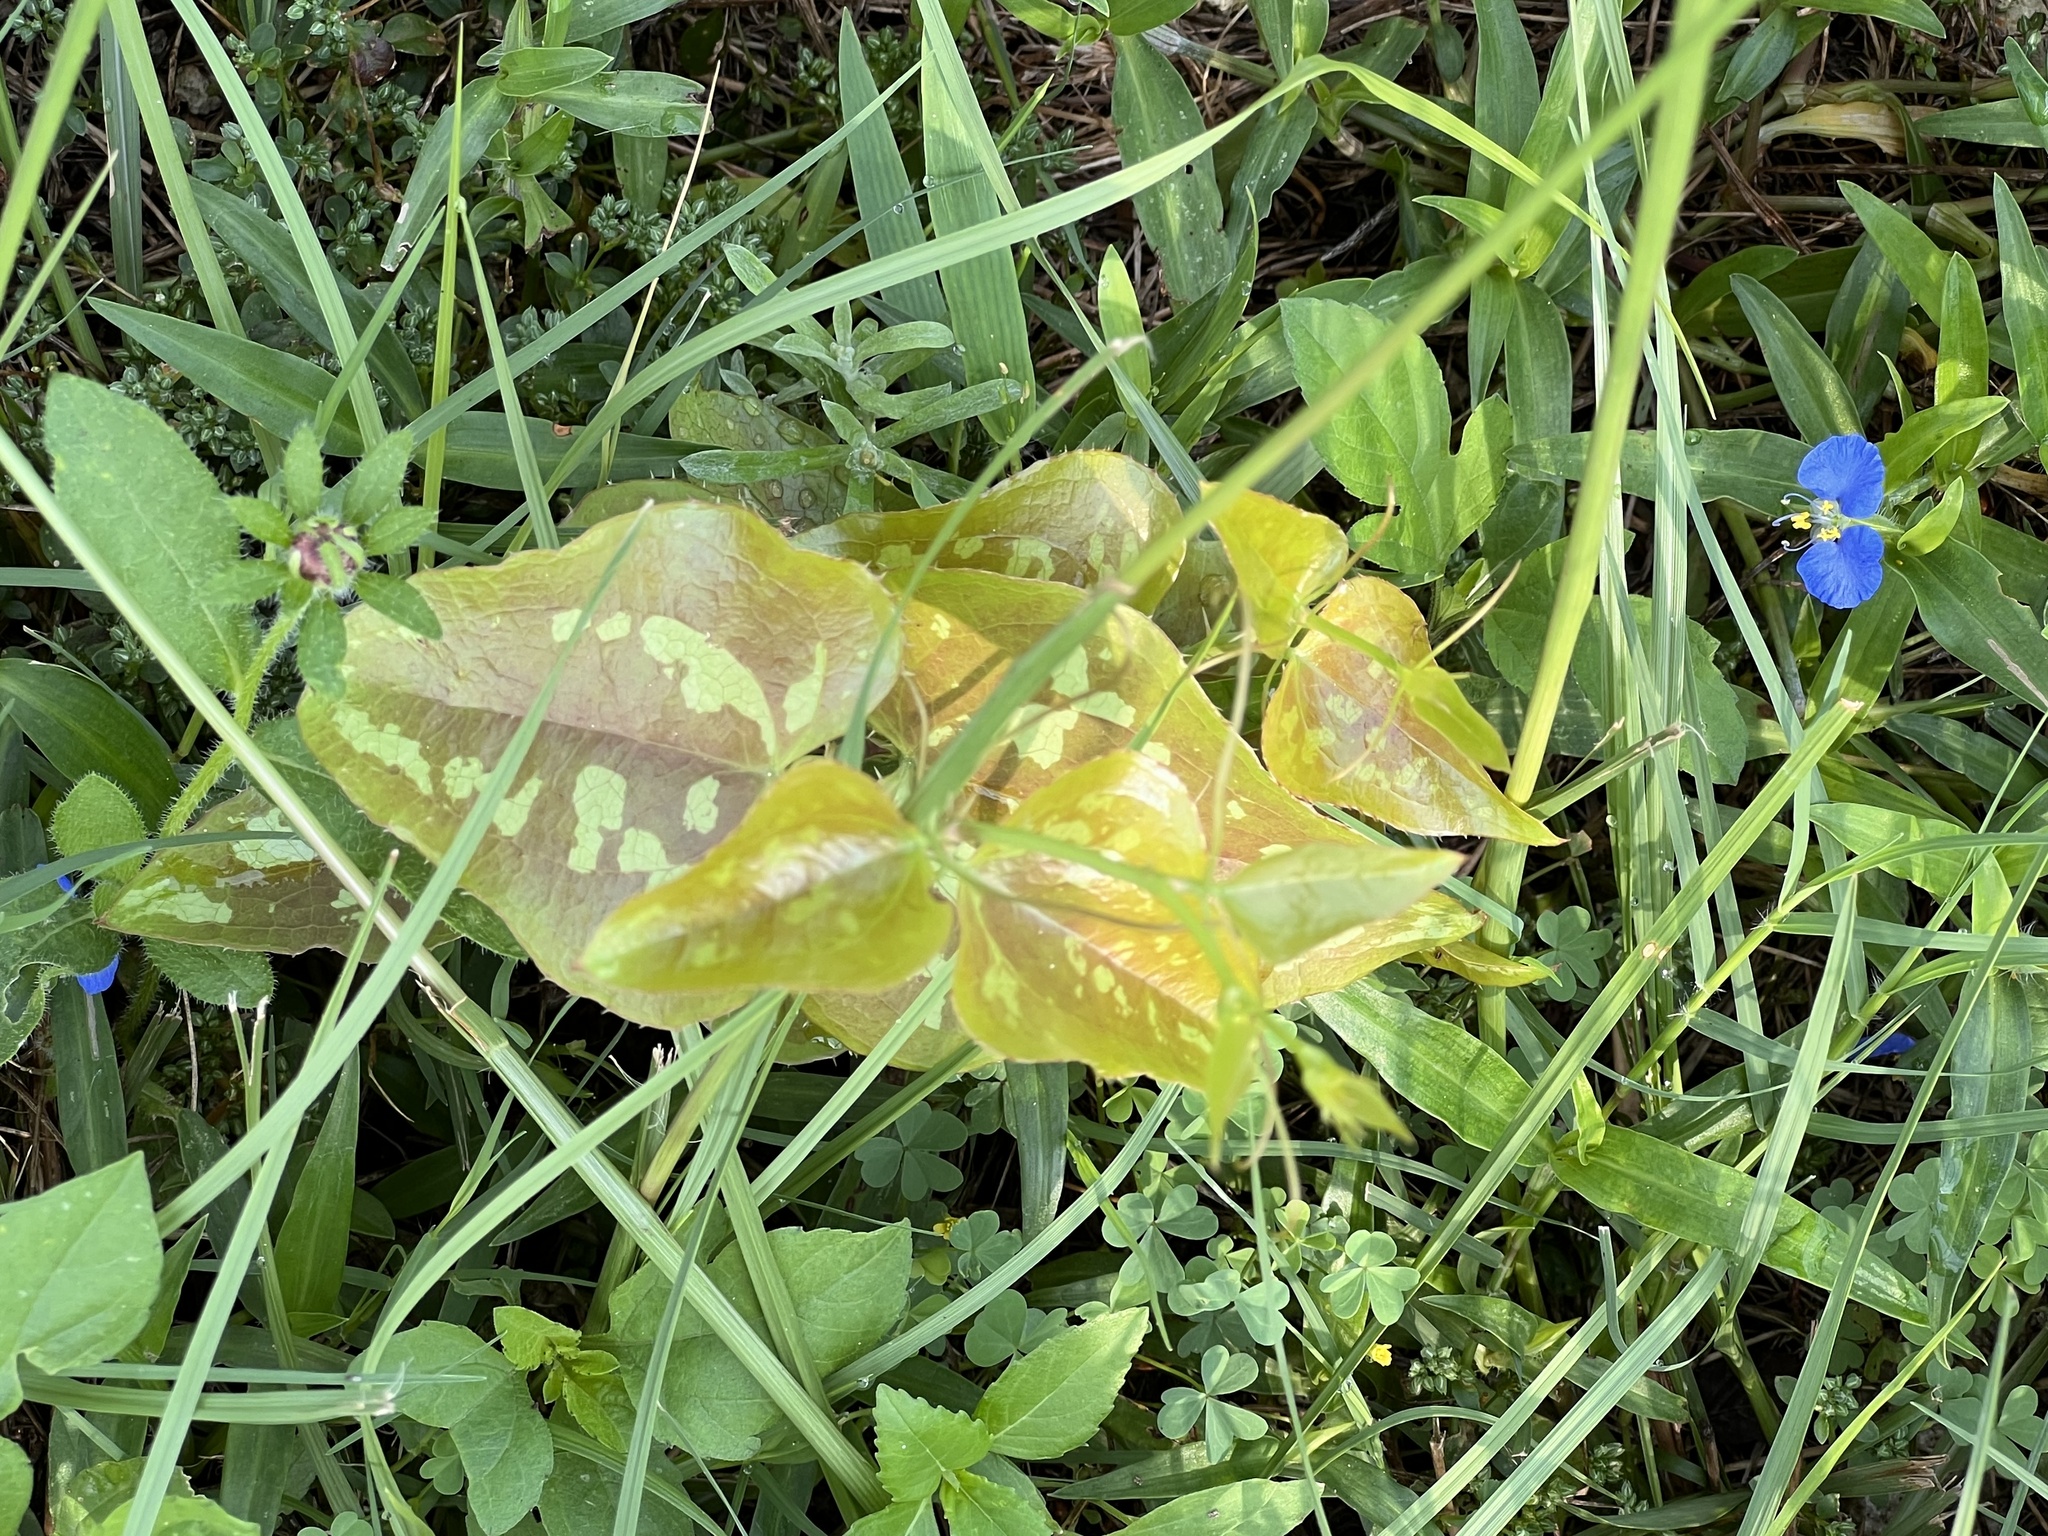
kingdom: Plantae
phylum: Tracheophyta
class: Liliopsida
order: Liliales
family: Smilacaceae
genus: Smilax
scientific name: Smilax bona-nox
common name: Catbrier
